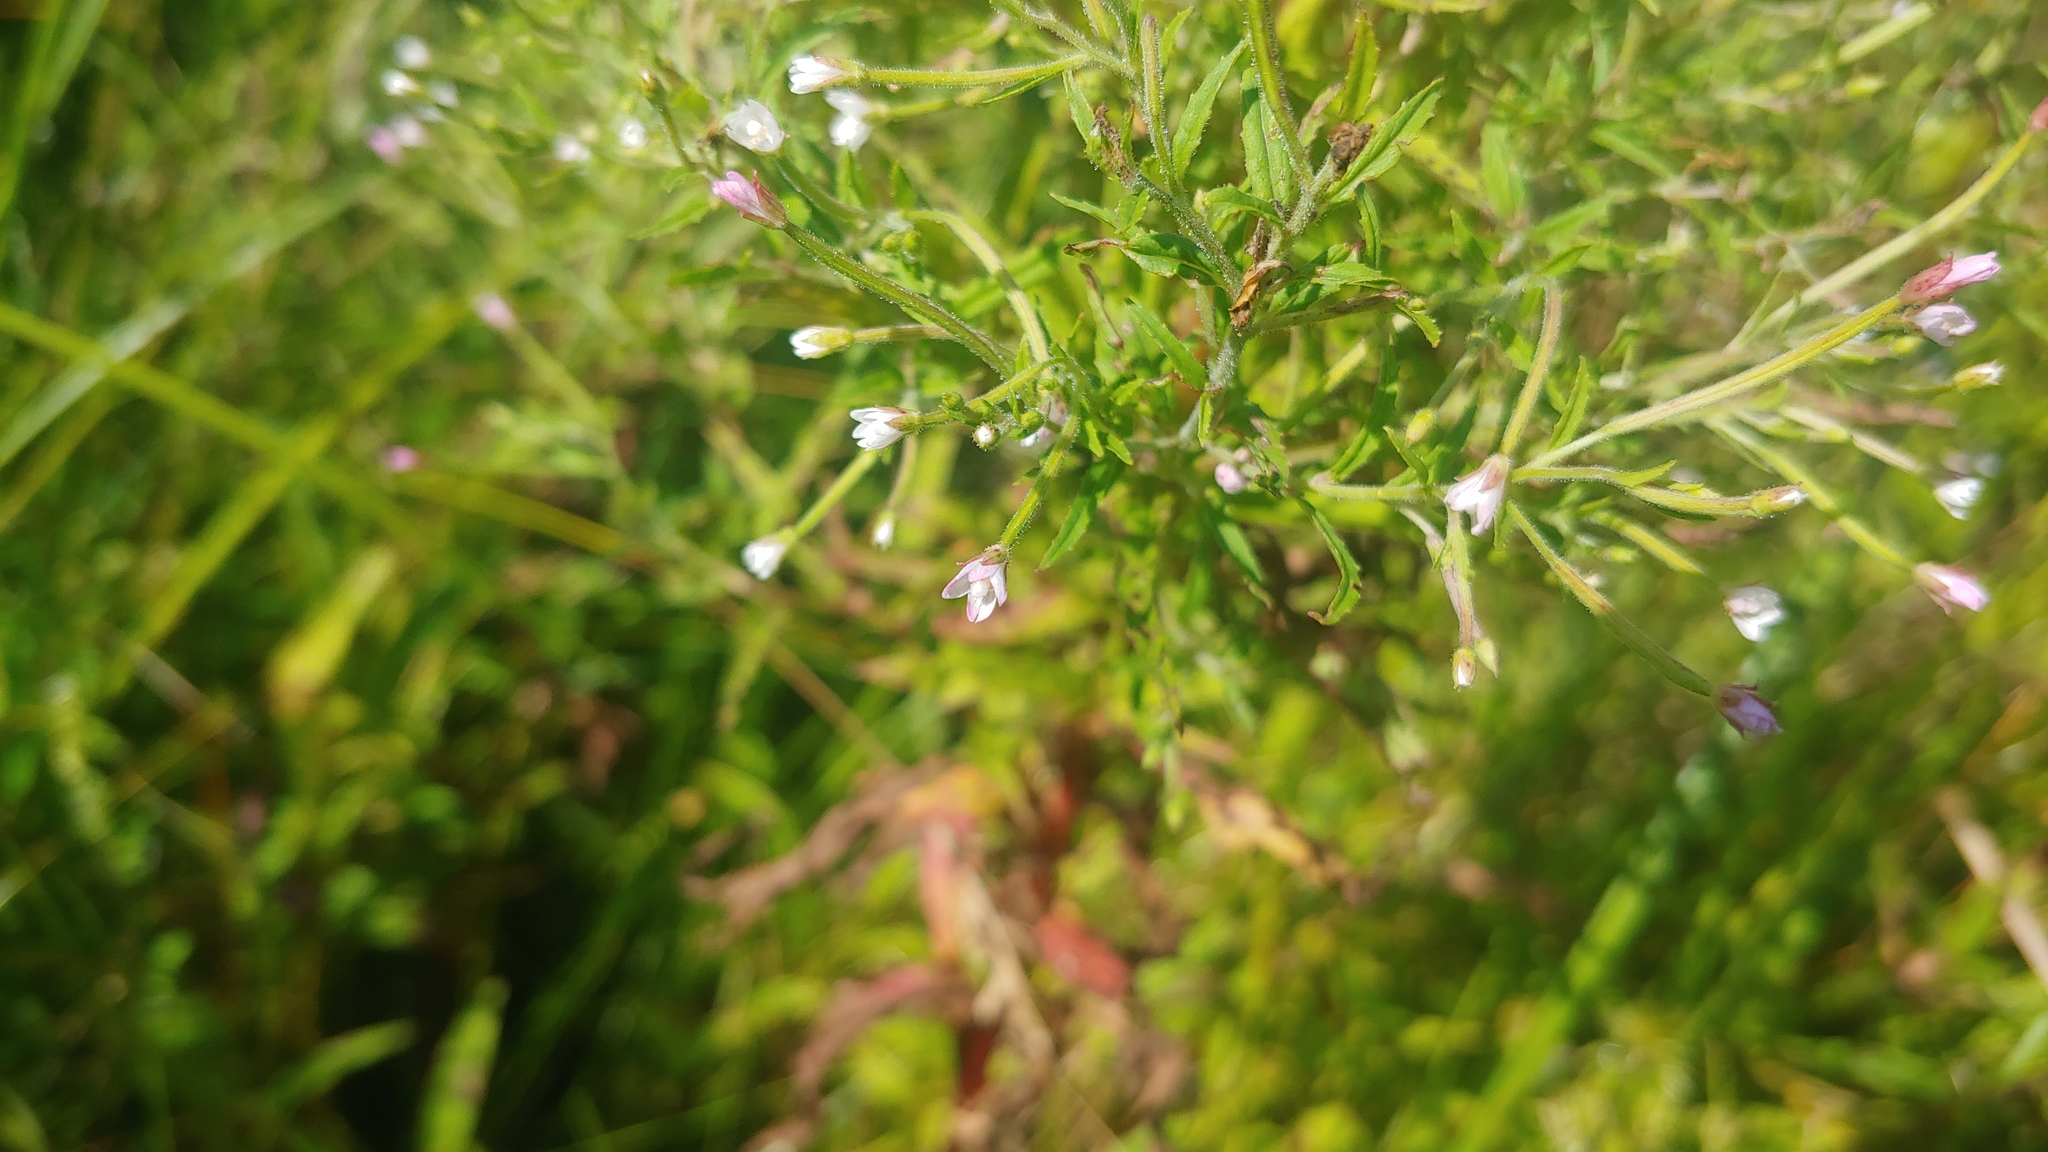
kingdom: Plantae
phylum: Tracheophyta
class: Magnoliopsida
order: Myrtales
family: Onagraceae
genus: Epilobium
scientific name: Epilobium coloratum
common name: Bronze willowherb
